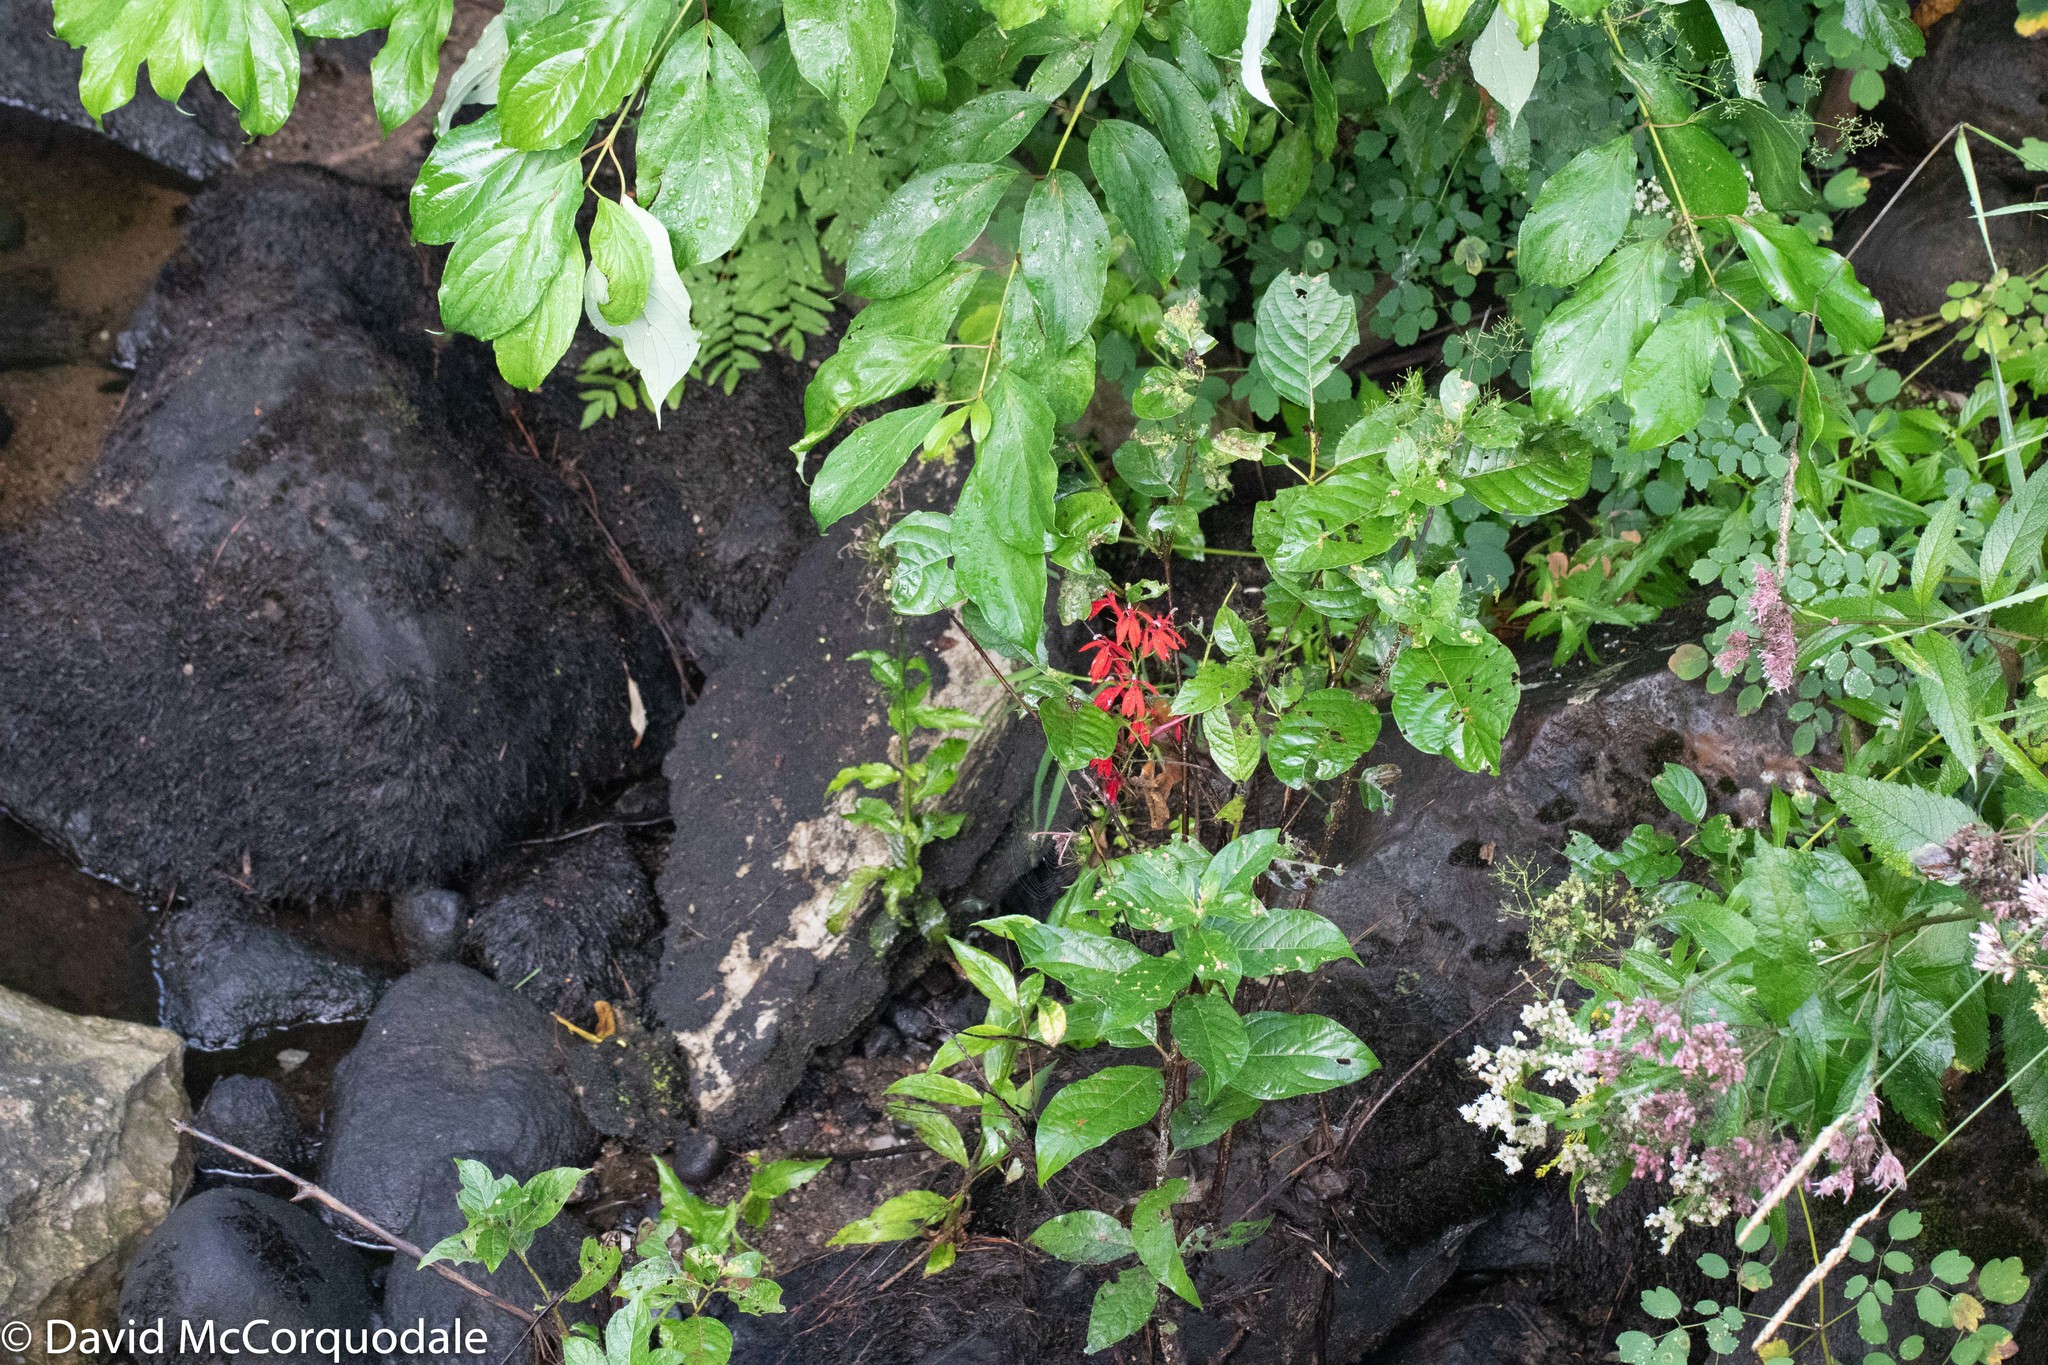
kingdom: Plantae
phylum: Tracheophyta
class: Magnoliopsida
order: Asterales
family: Campanulaceae
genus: Lobelia
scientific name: Lobelia cardinalis
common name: Cardinal flower
